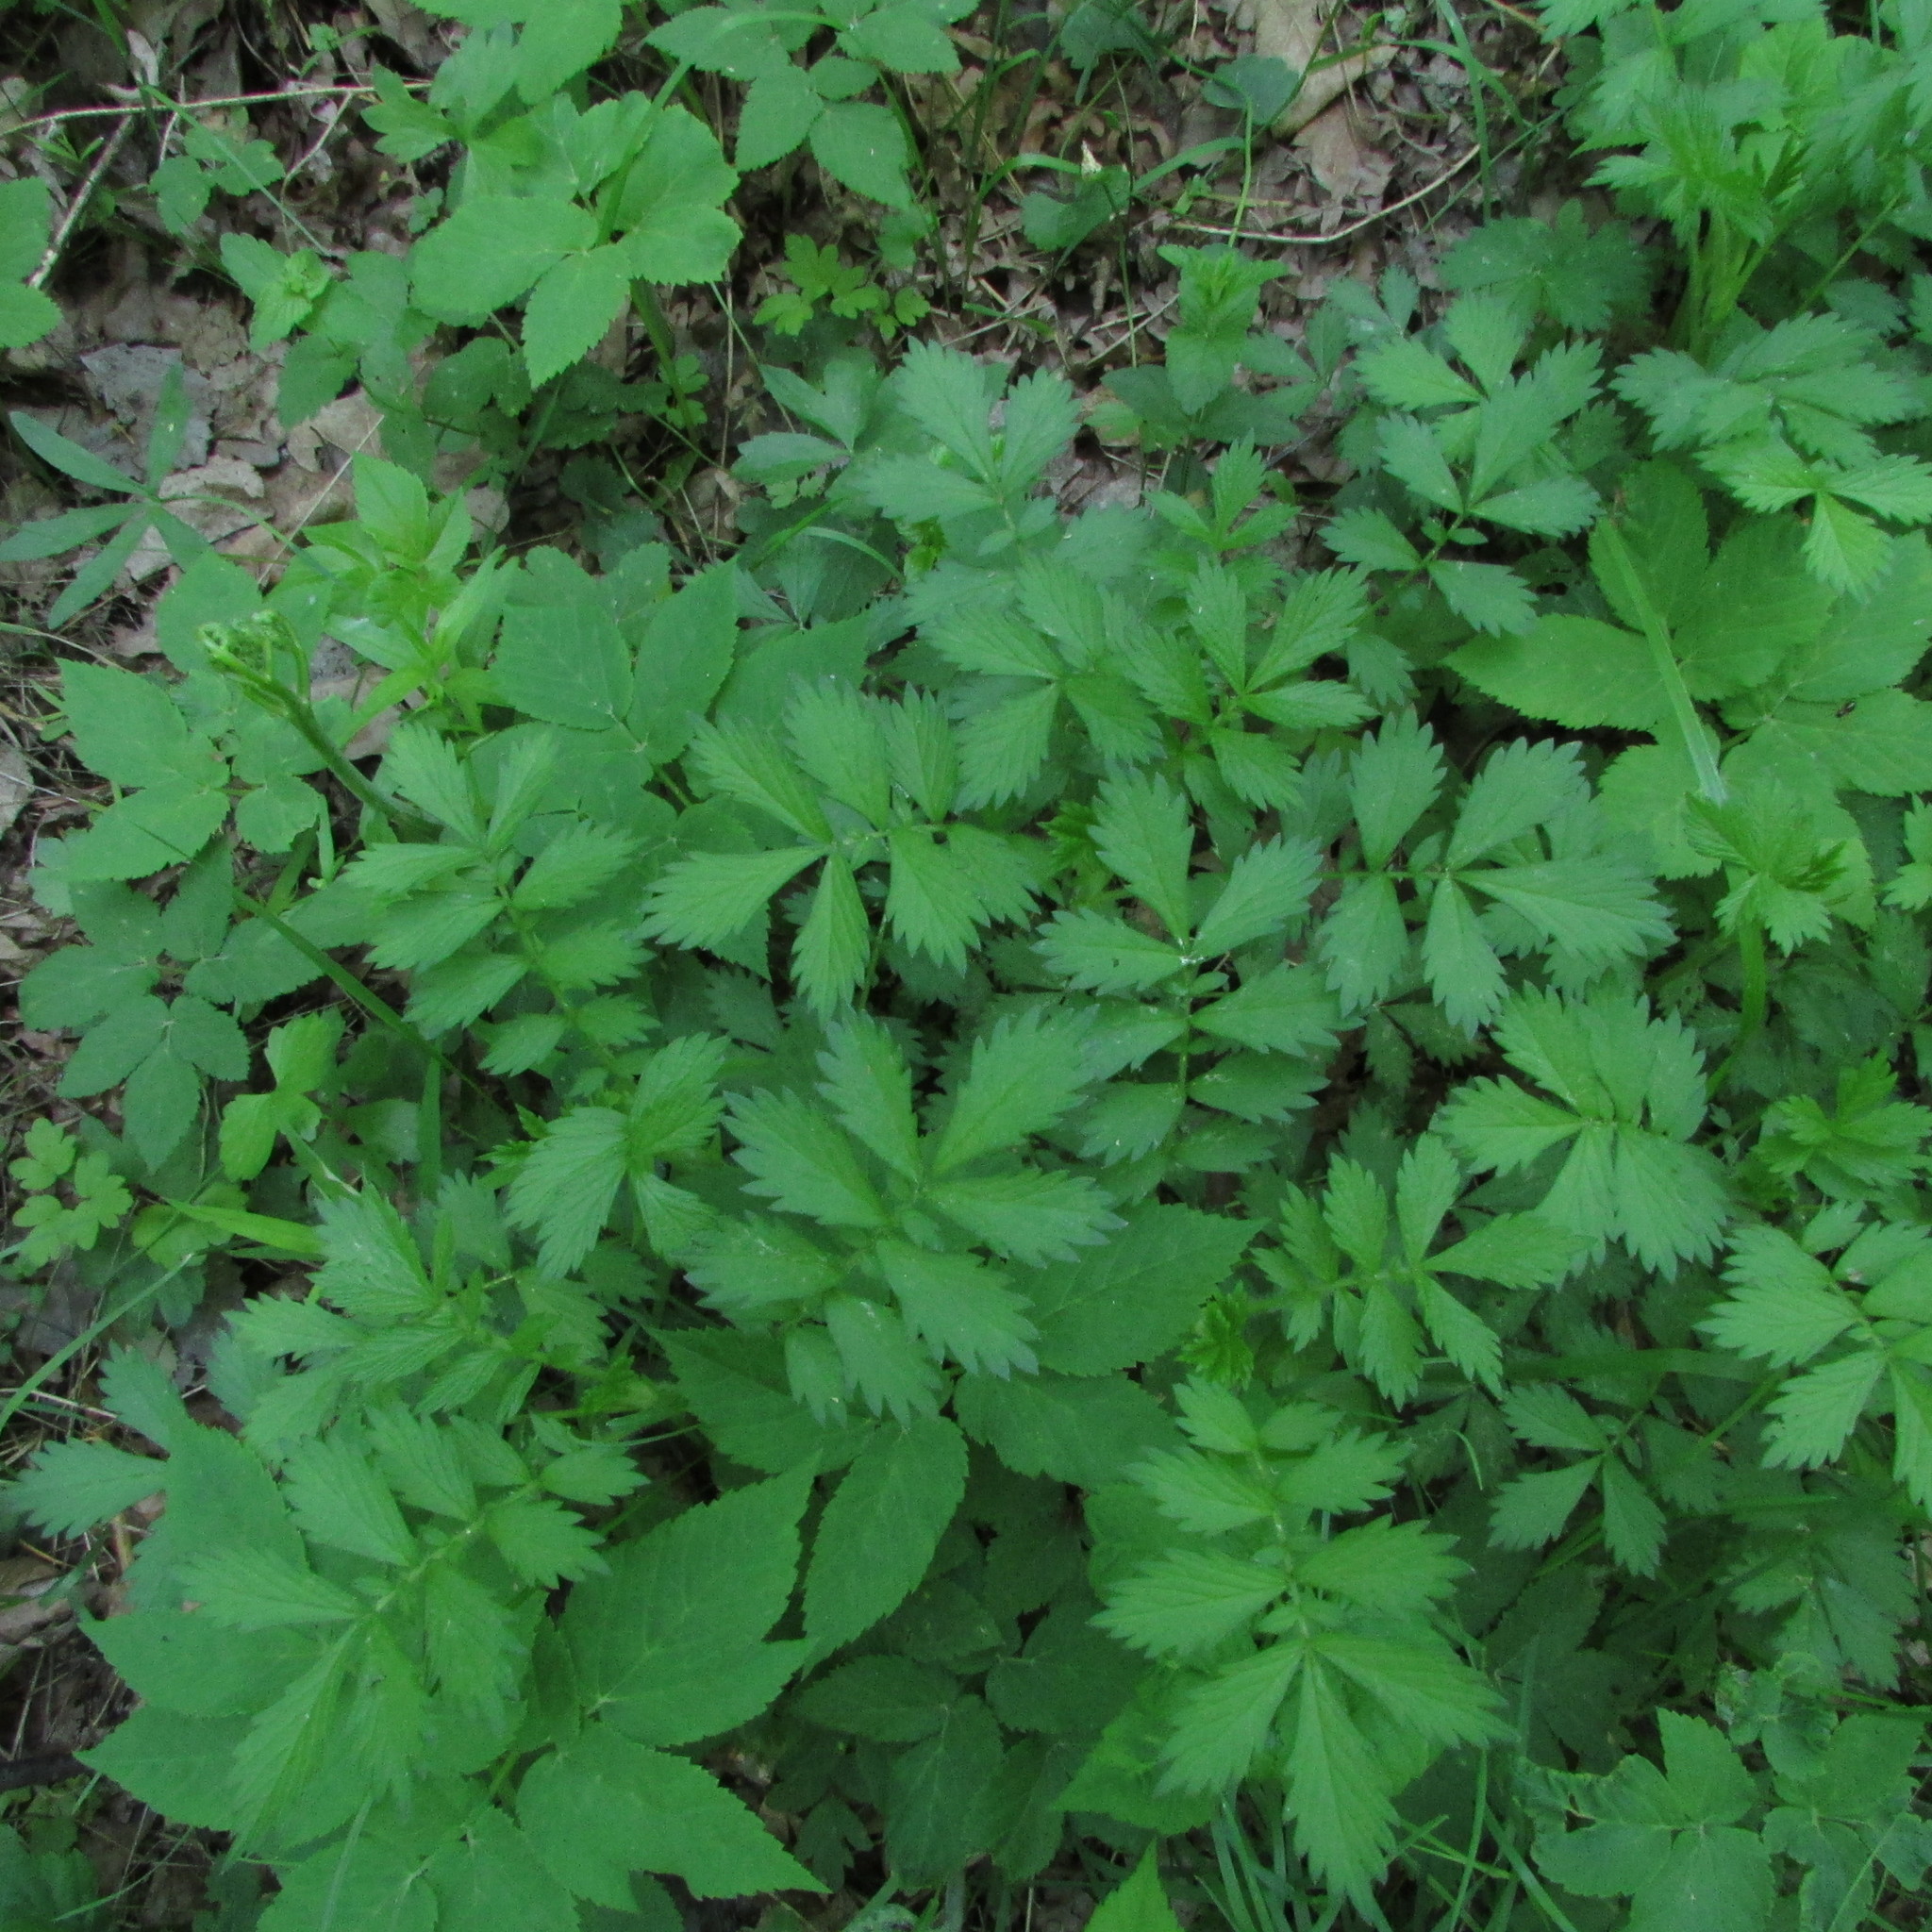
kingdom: Plantae
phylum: Tracheophyta
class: Magnoliopsida
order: Rosales
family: Rosaceae
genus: Agrimonia
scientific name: Agrimonia pilosa
